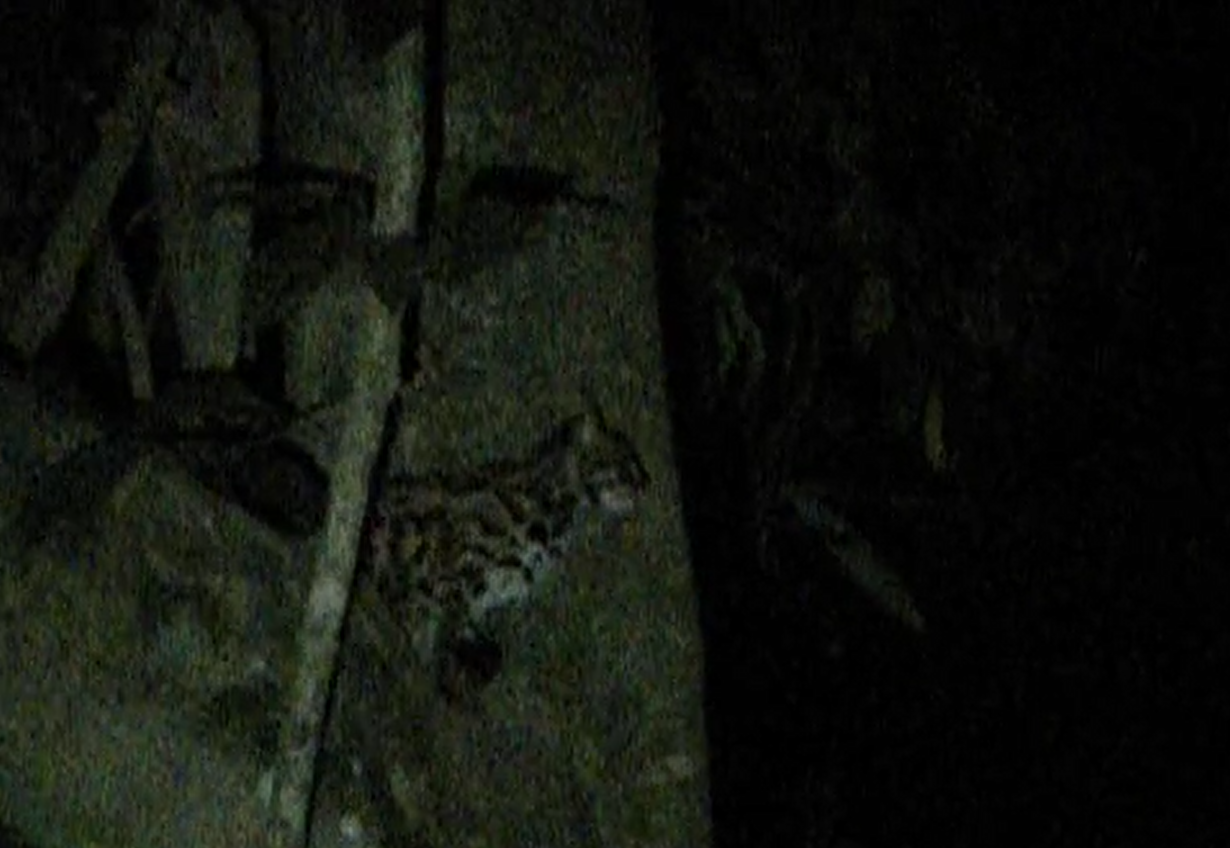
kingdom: Animalia
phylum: Chordata
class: Mammalia
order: Carnivora
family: Felidae
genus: Prionailurus
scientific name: Prionailurus bengalensis
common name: Leopard cat
